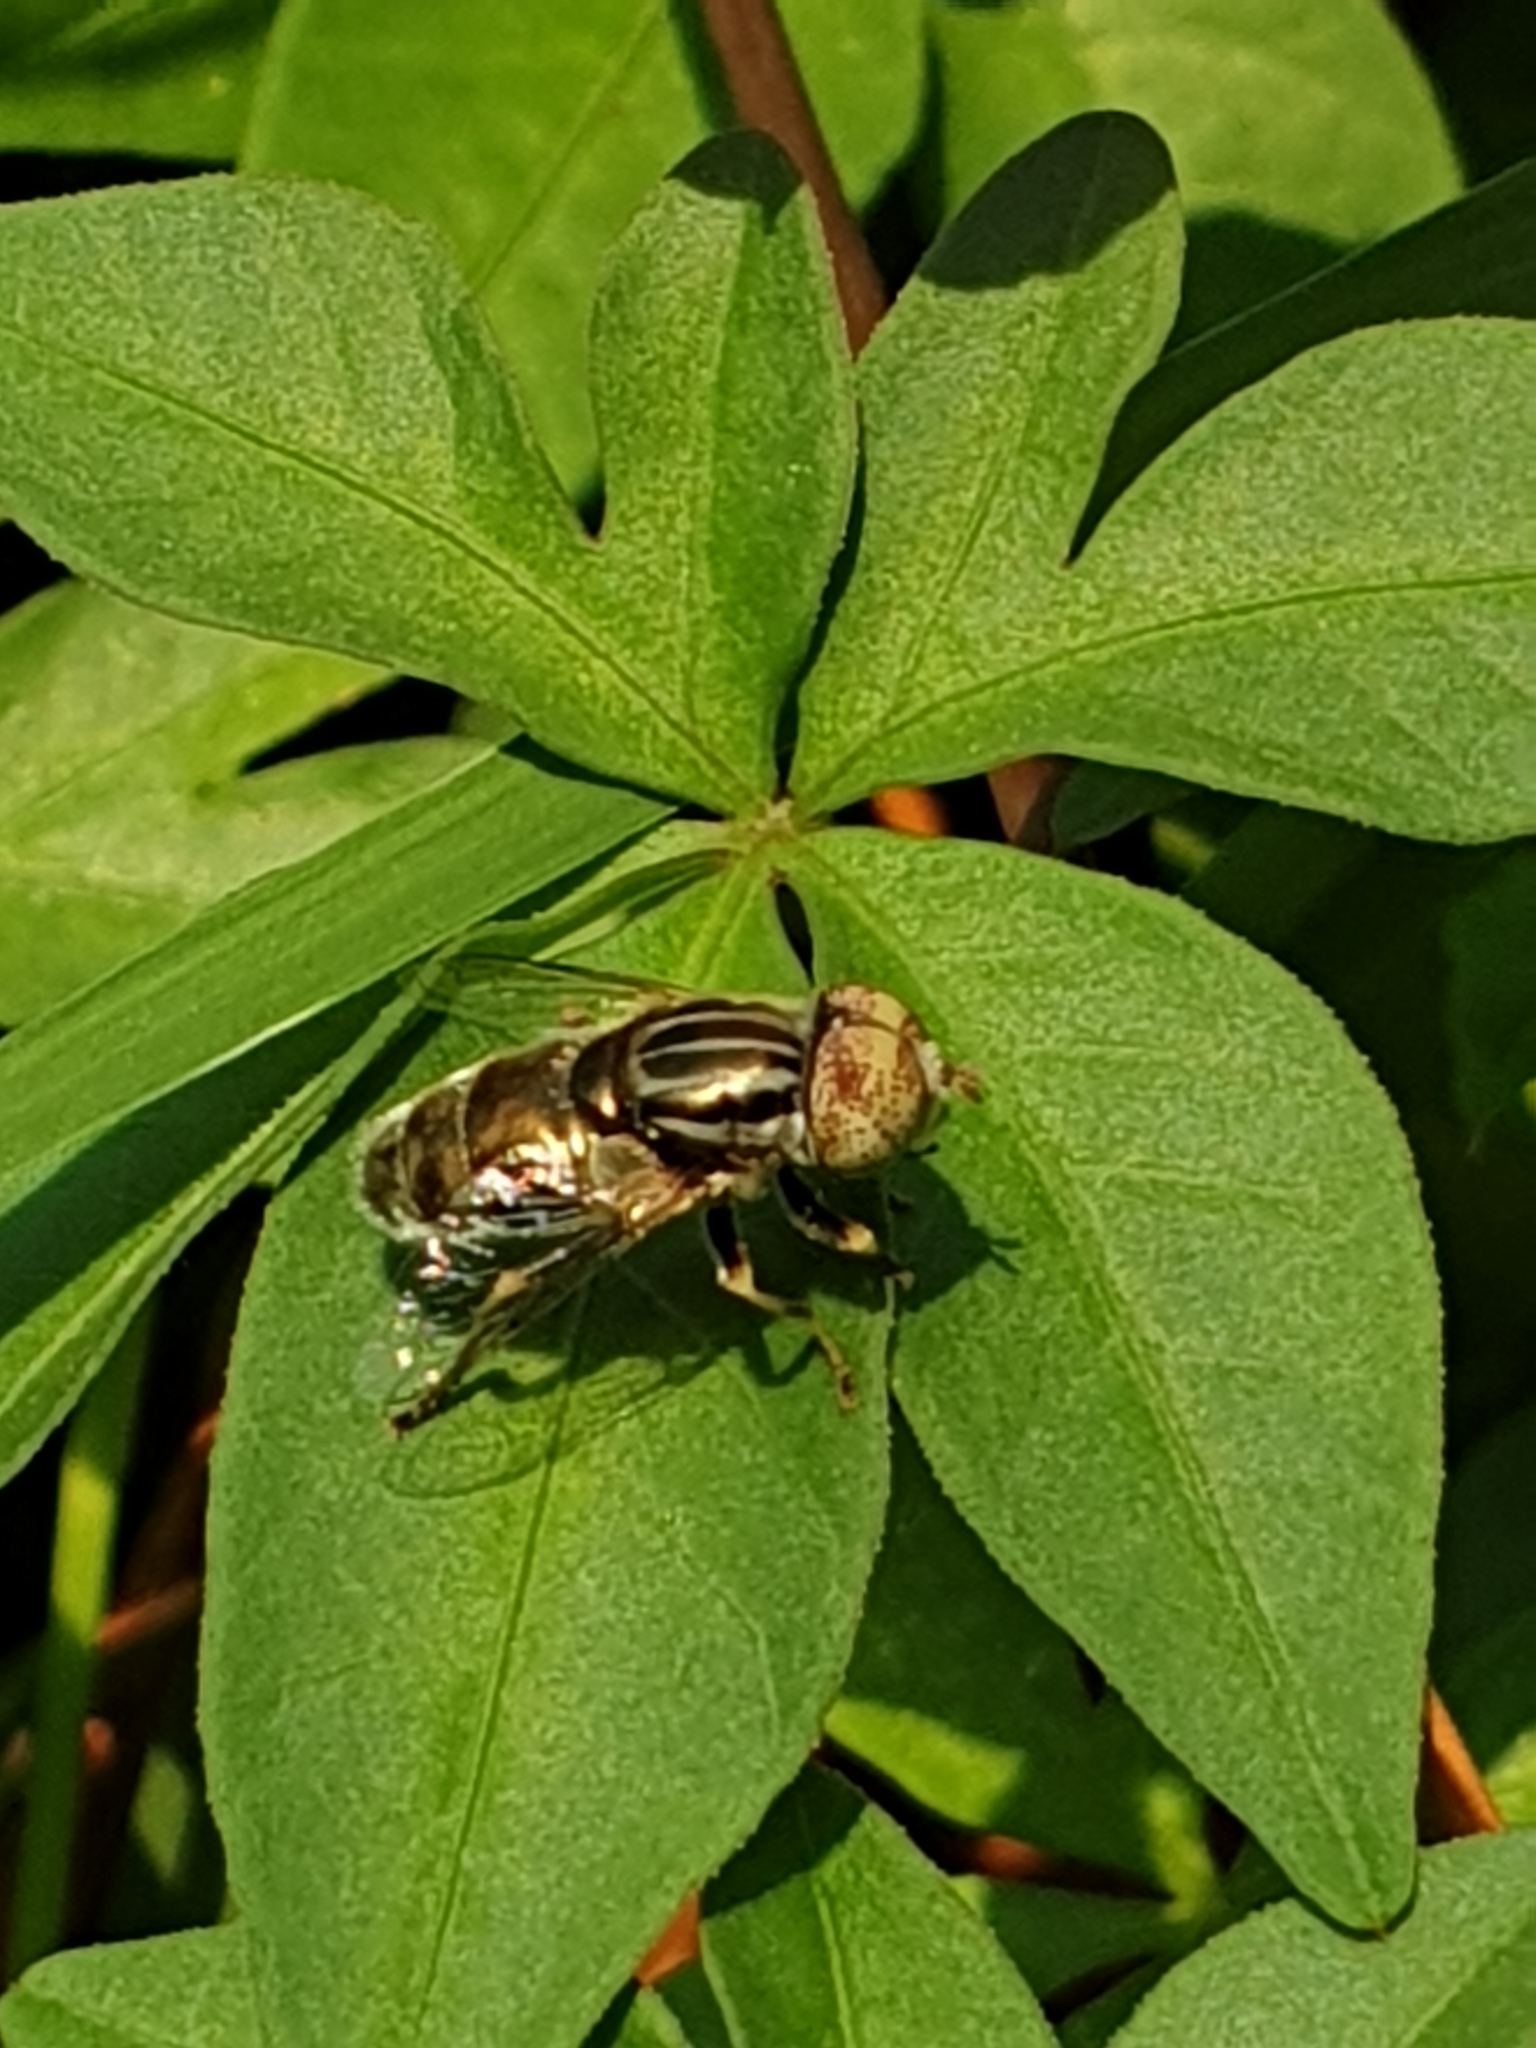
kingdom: Animalia
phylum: Arthropoda
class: Insecta
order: Diptera
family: Syrphidae
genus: Eristalinus
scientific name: Eristalinus aeneus
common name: Syrphid fly
